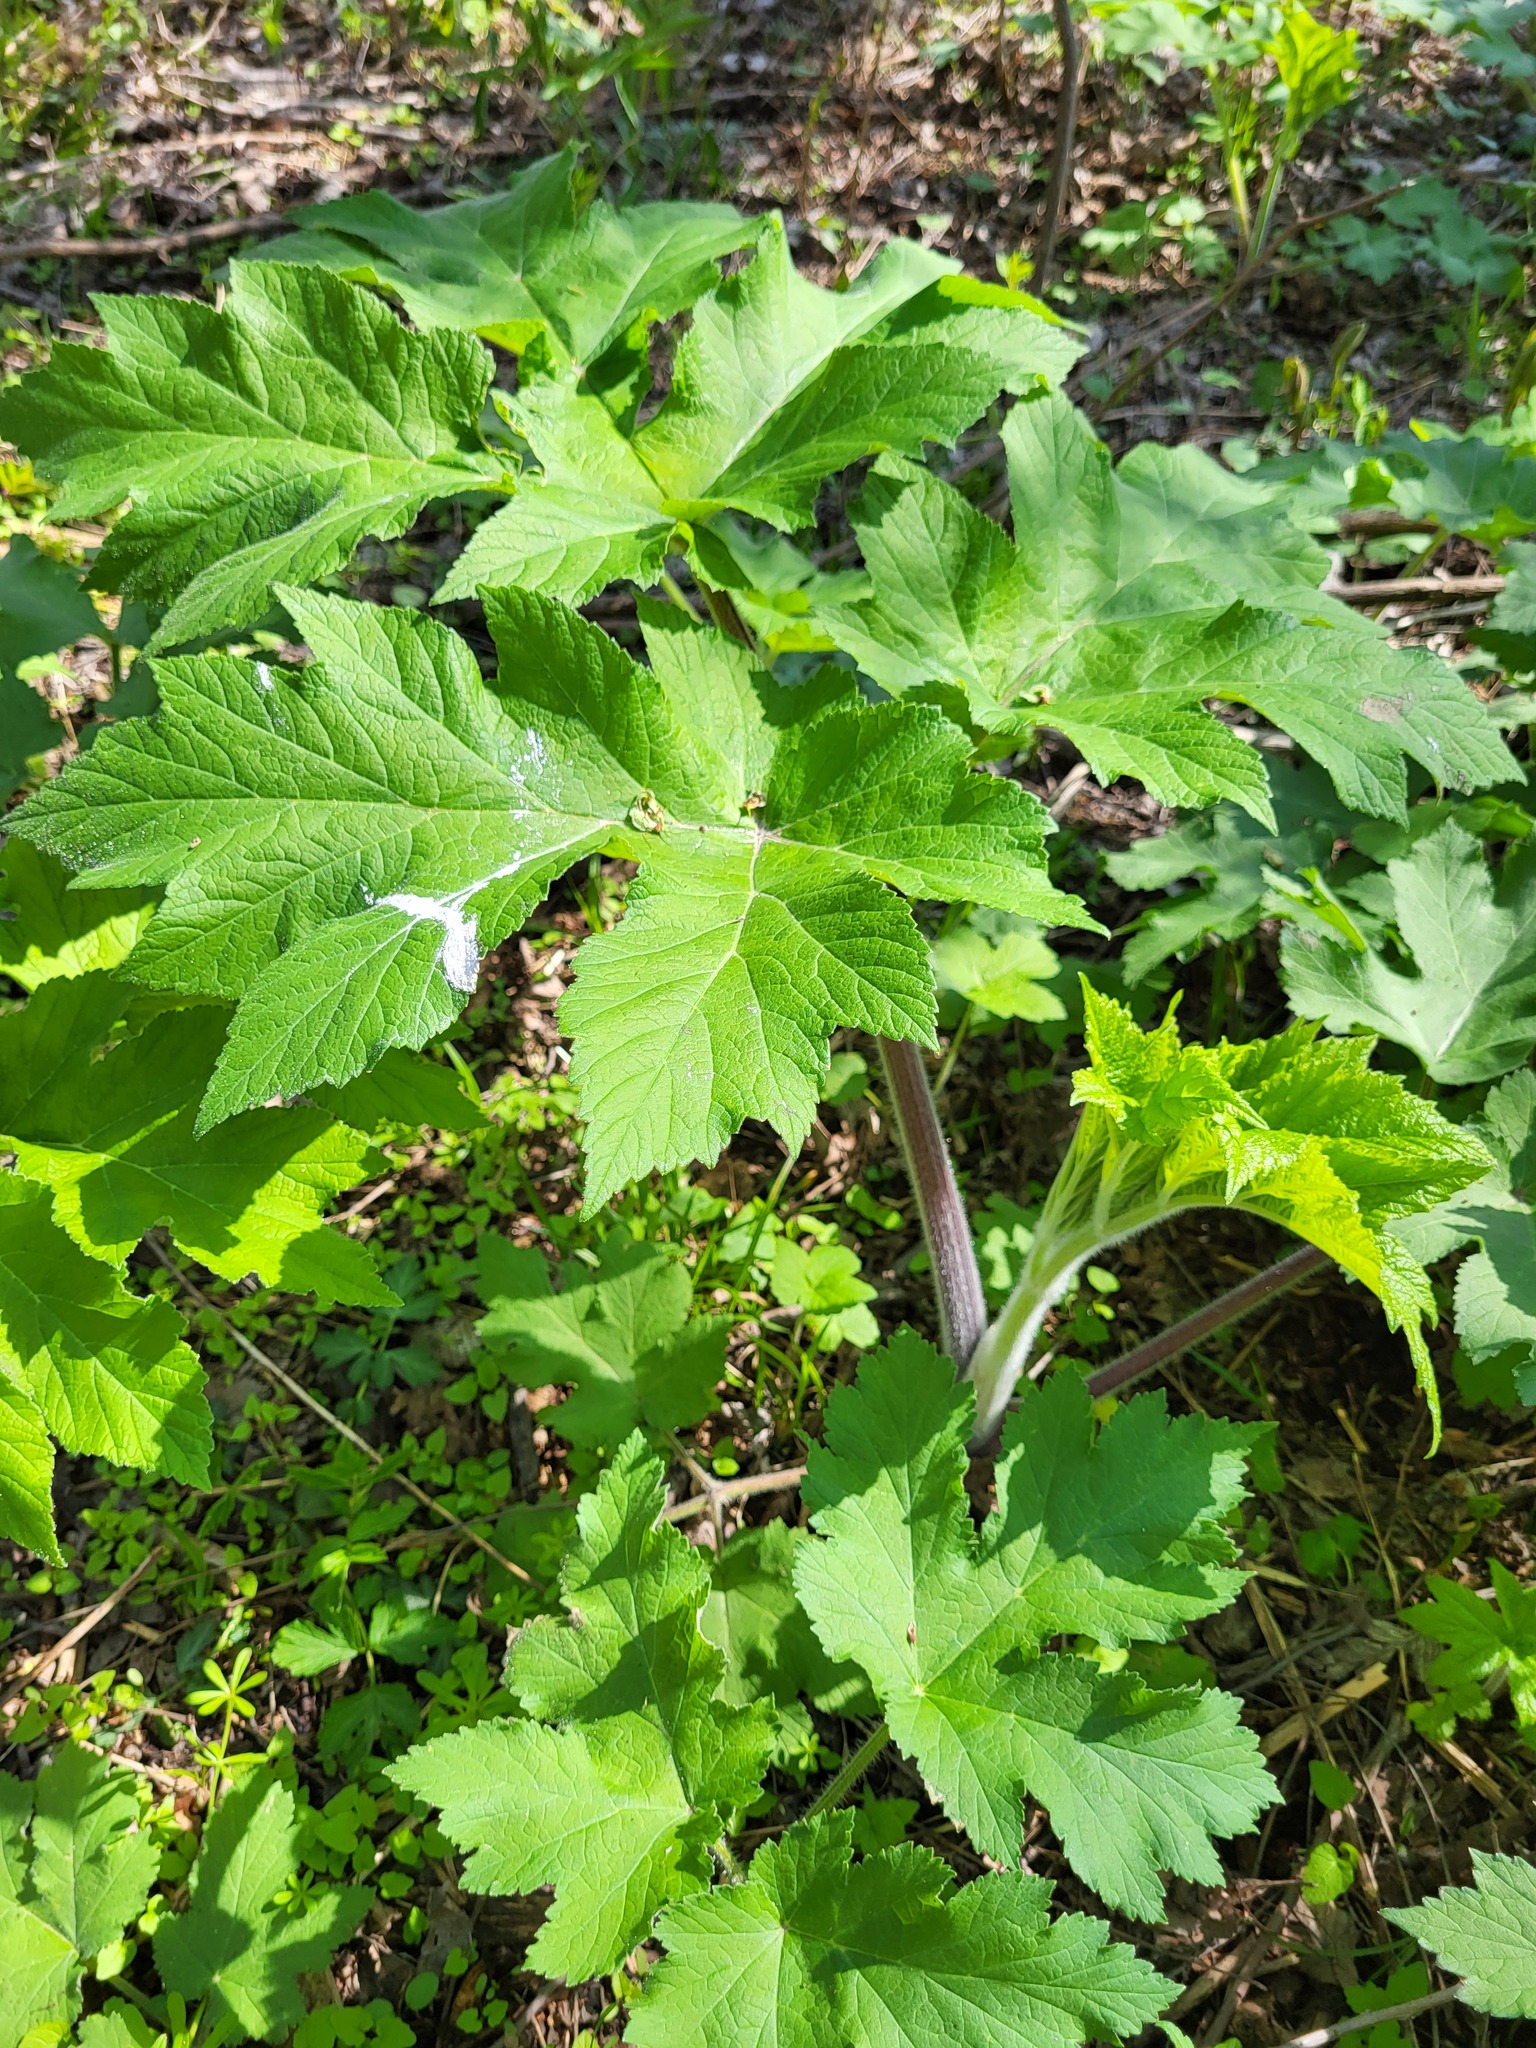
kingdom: Plantae
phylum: Tracheophyta
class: Magnoliopsida
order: Apiales
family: Apiaceae
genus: Heracleum
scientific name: Heracleum maximum
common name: American cow parsnip
